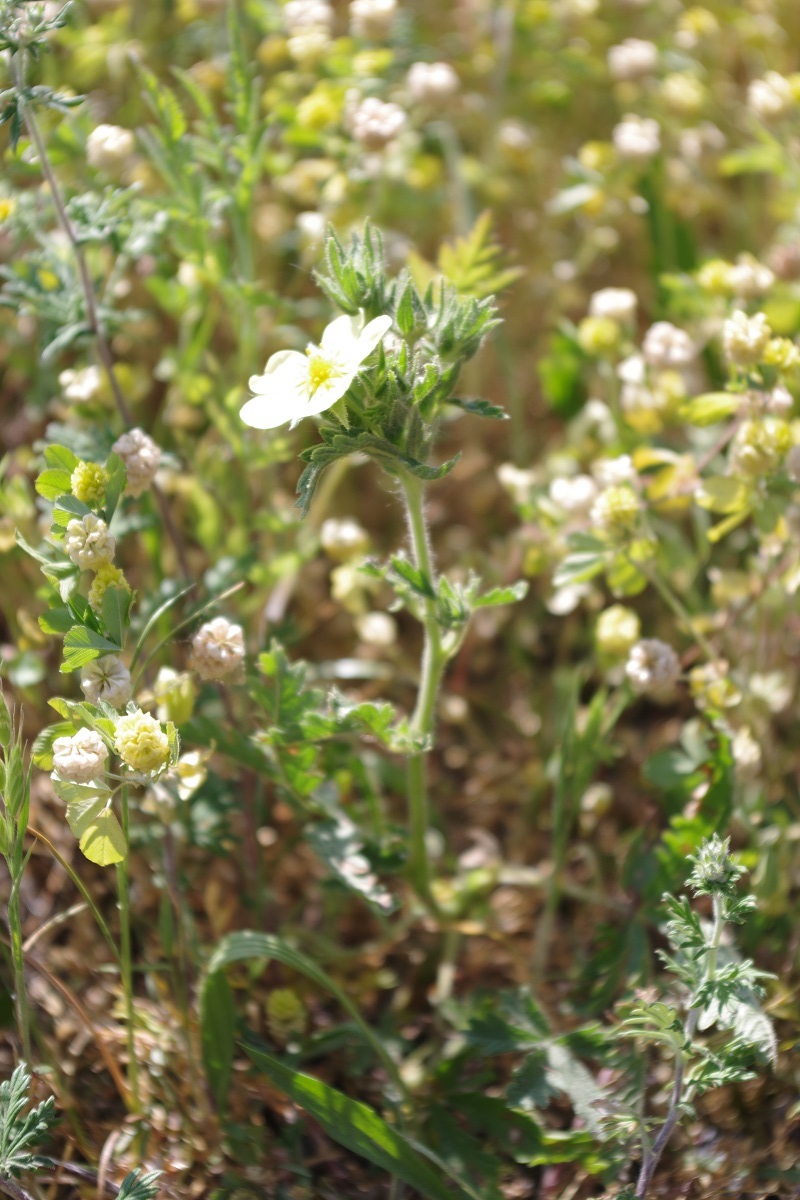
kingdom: Plantae
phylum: Tracheophyta
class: Magnoliopsida
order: Rosales
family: Rosaceae
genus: Potentilla
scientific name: Potentilla recta
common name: Sulphur cinquefoil
